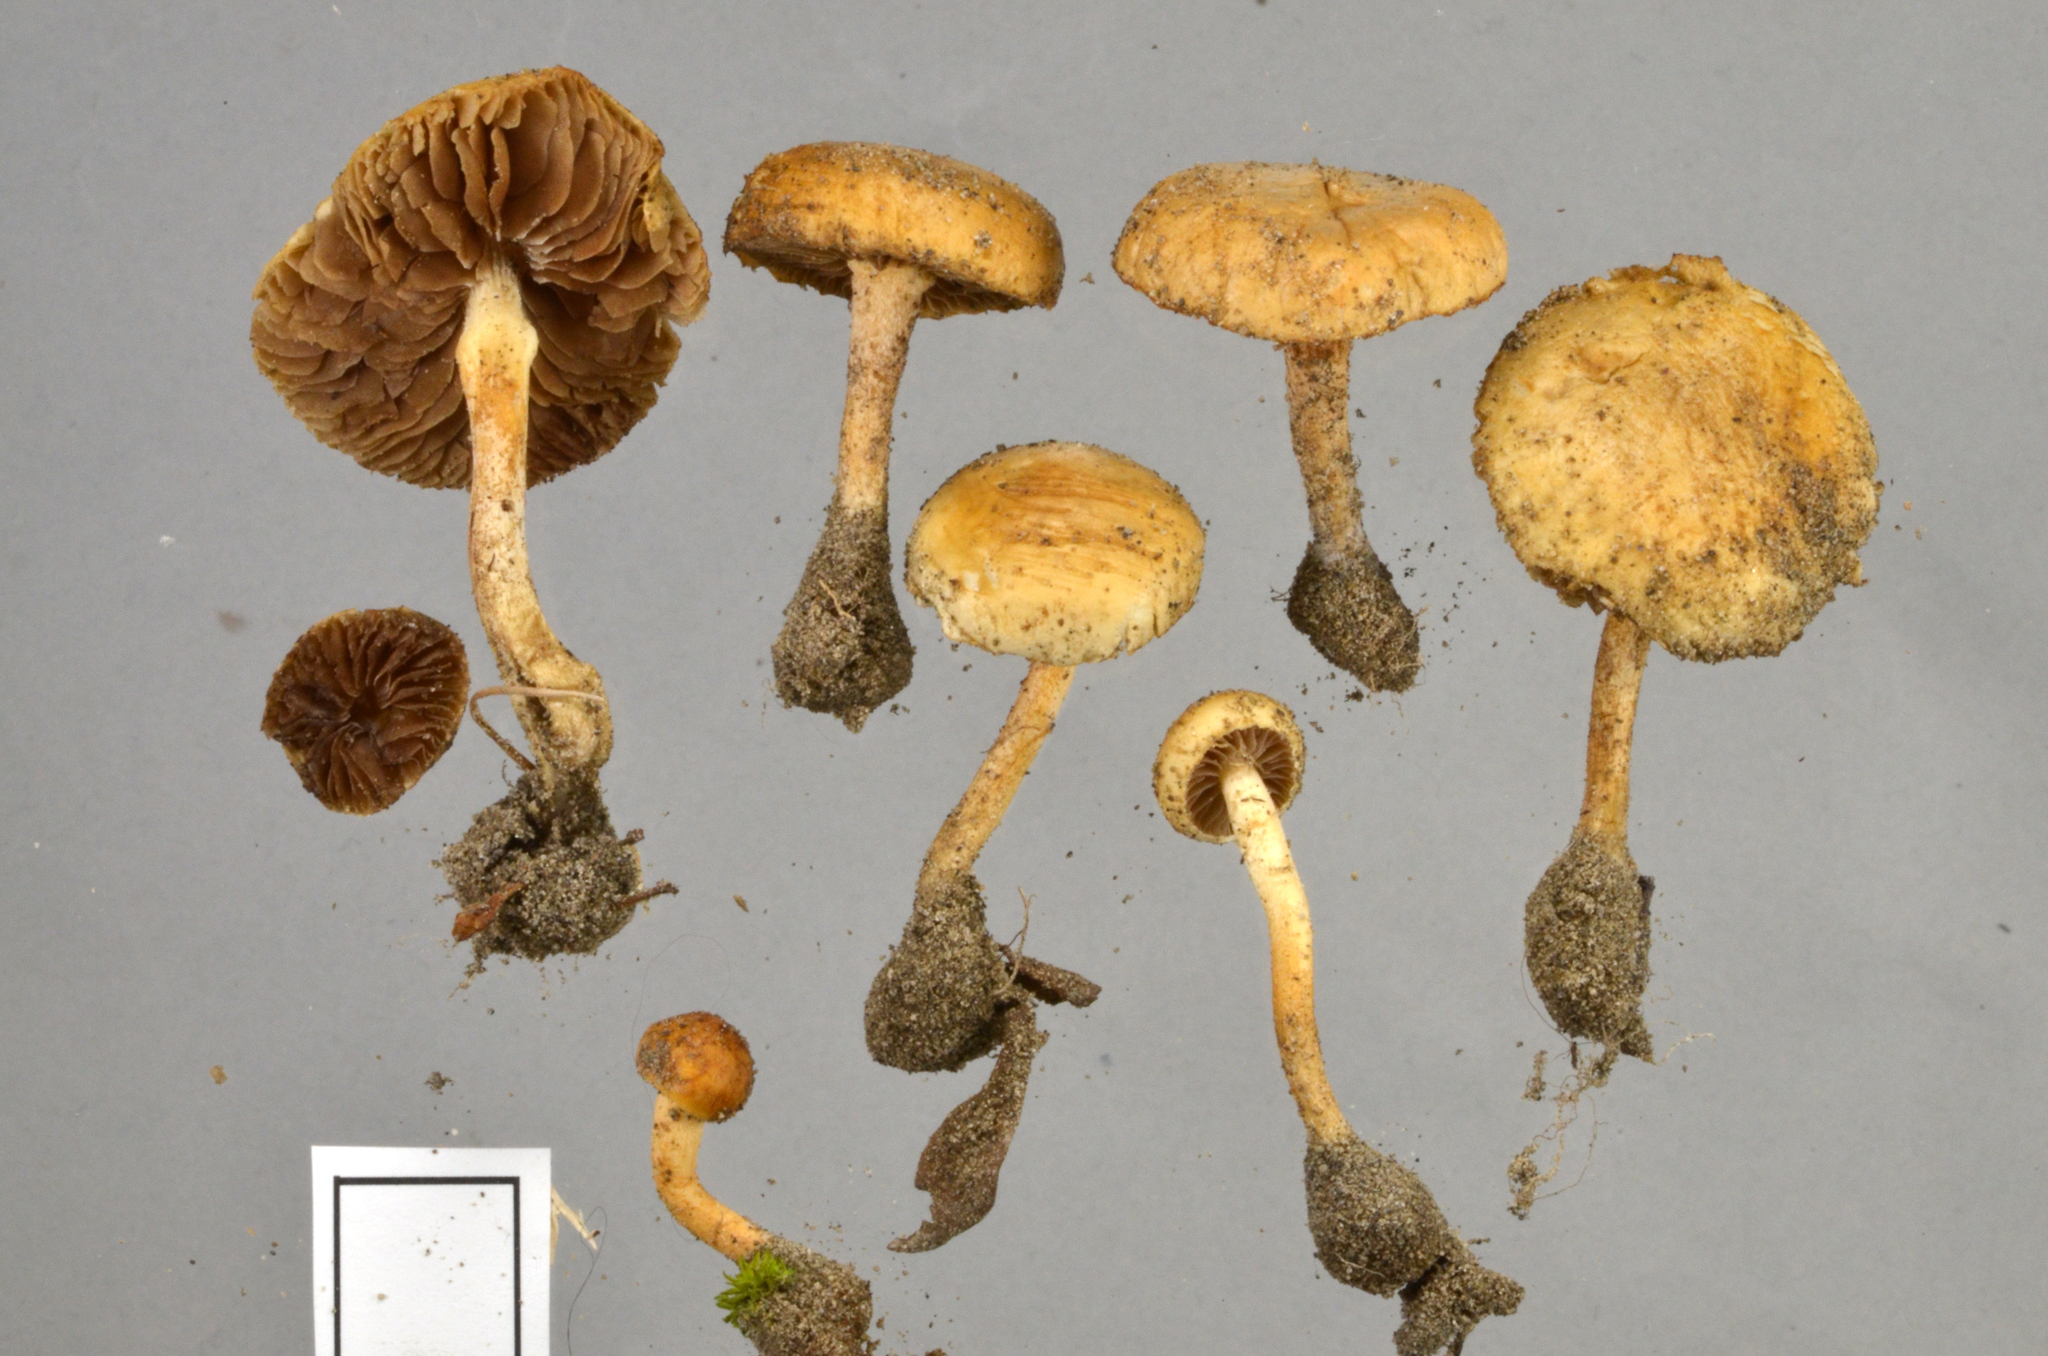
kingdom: Fungi
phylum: Basidiomycota
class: Agaricomycetes
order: Agaricales
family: Strophariaceae
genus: Agrocybe
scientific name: Agrocybe pediades
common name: Common fieldcap
